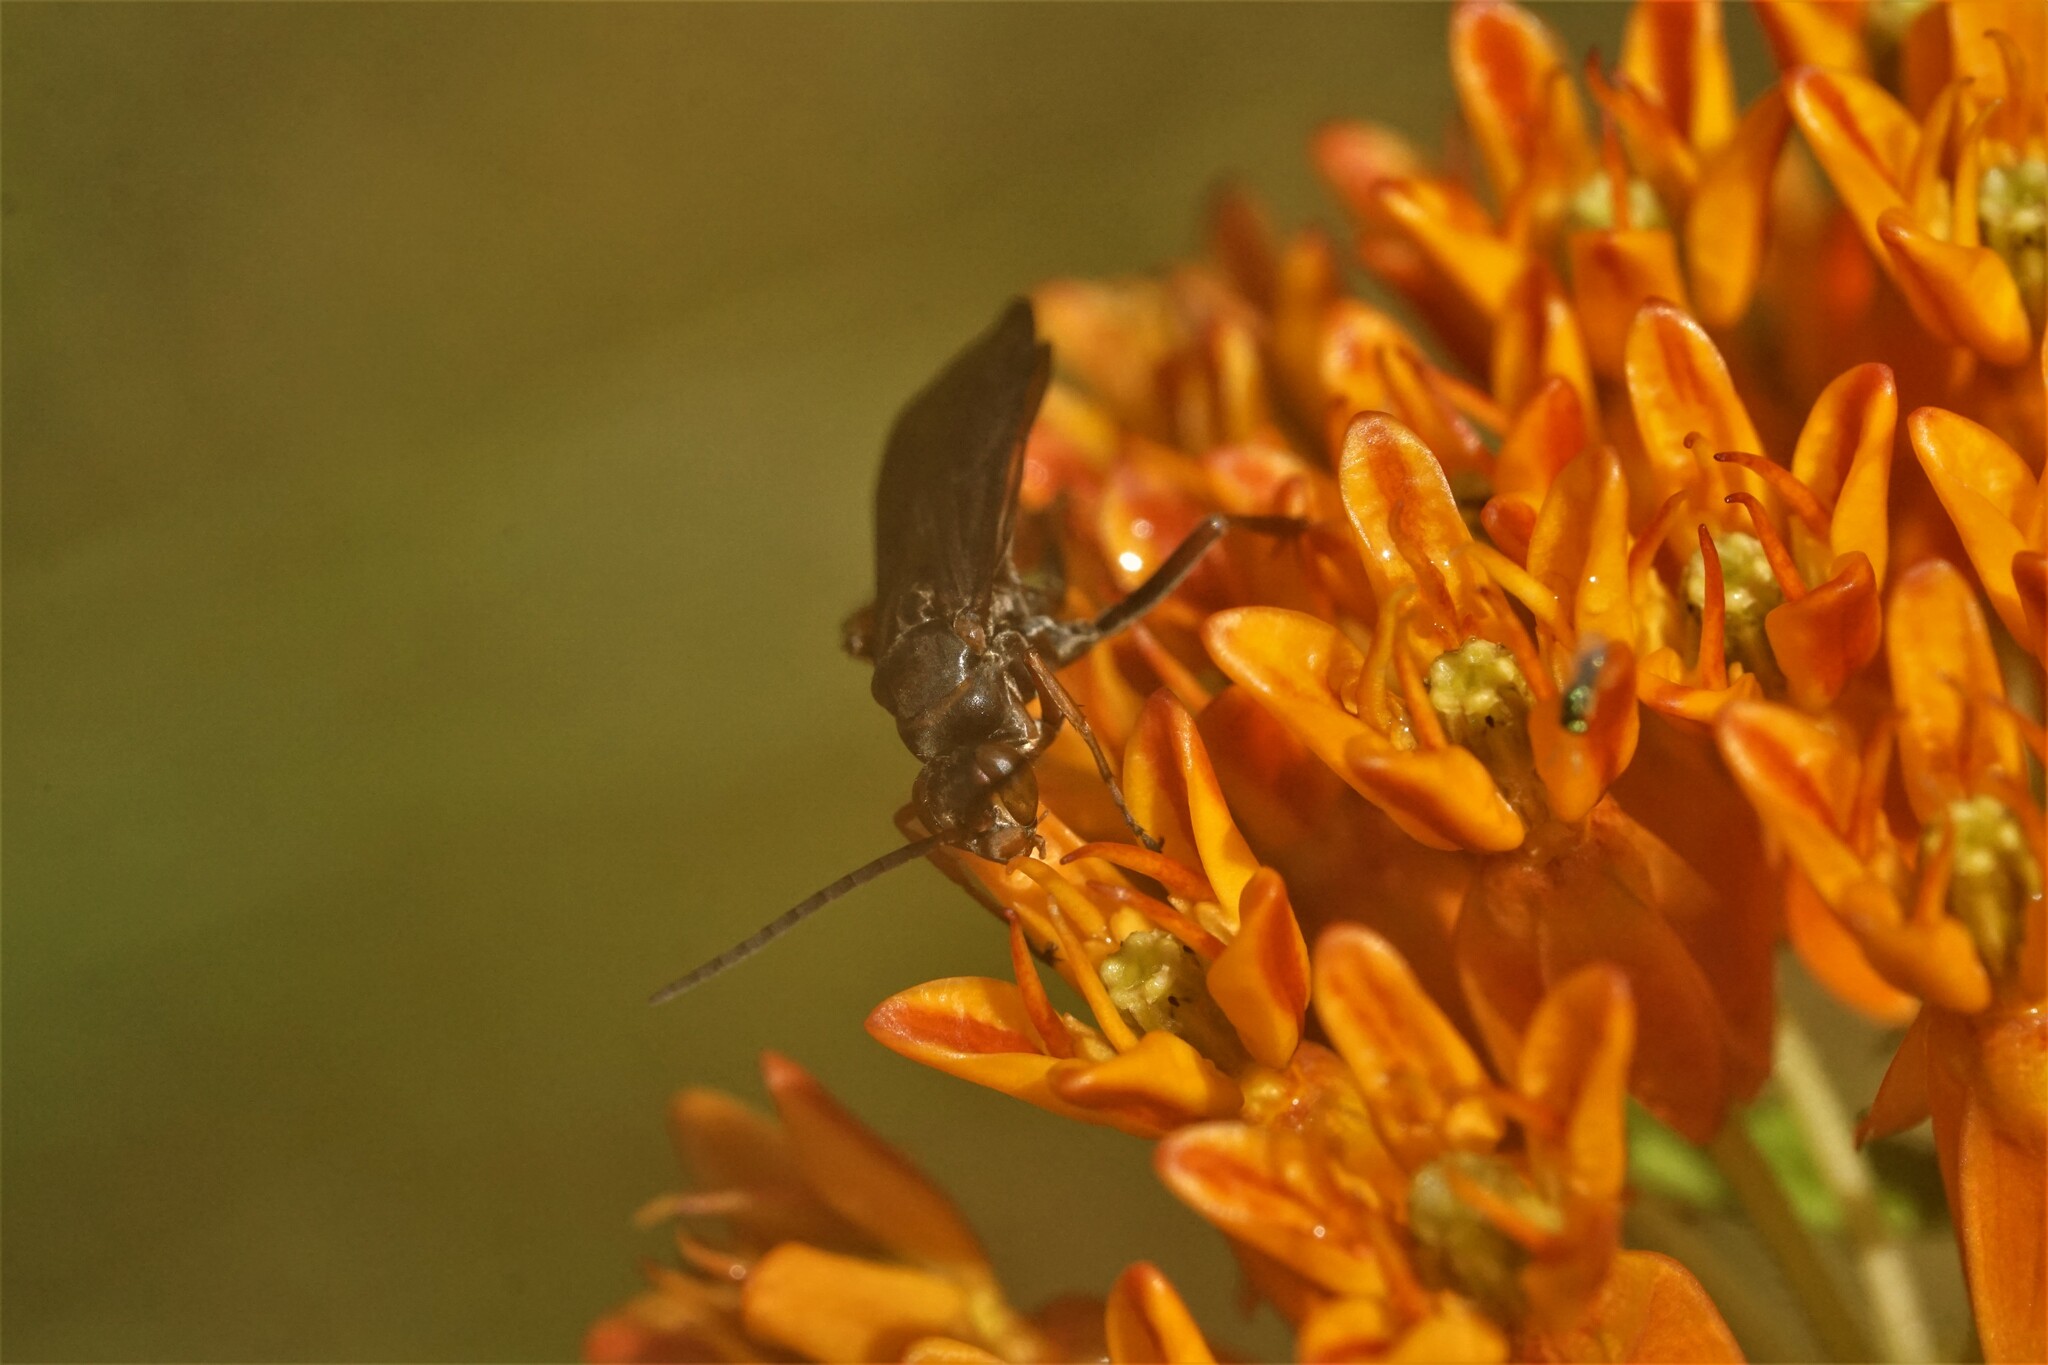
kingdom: Animalia
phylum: Arthropoda
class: Insecta
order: Hymenoptera
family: Pompilidae
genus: Tachypompilus
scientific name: Tachypompilus ferrugineus
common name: Rusty spider wasp
